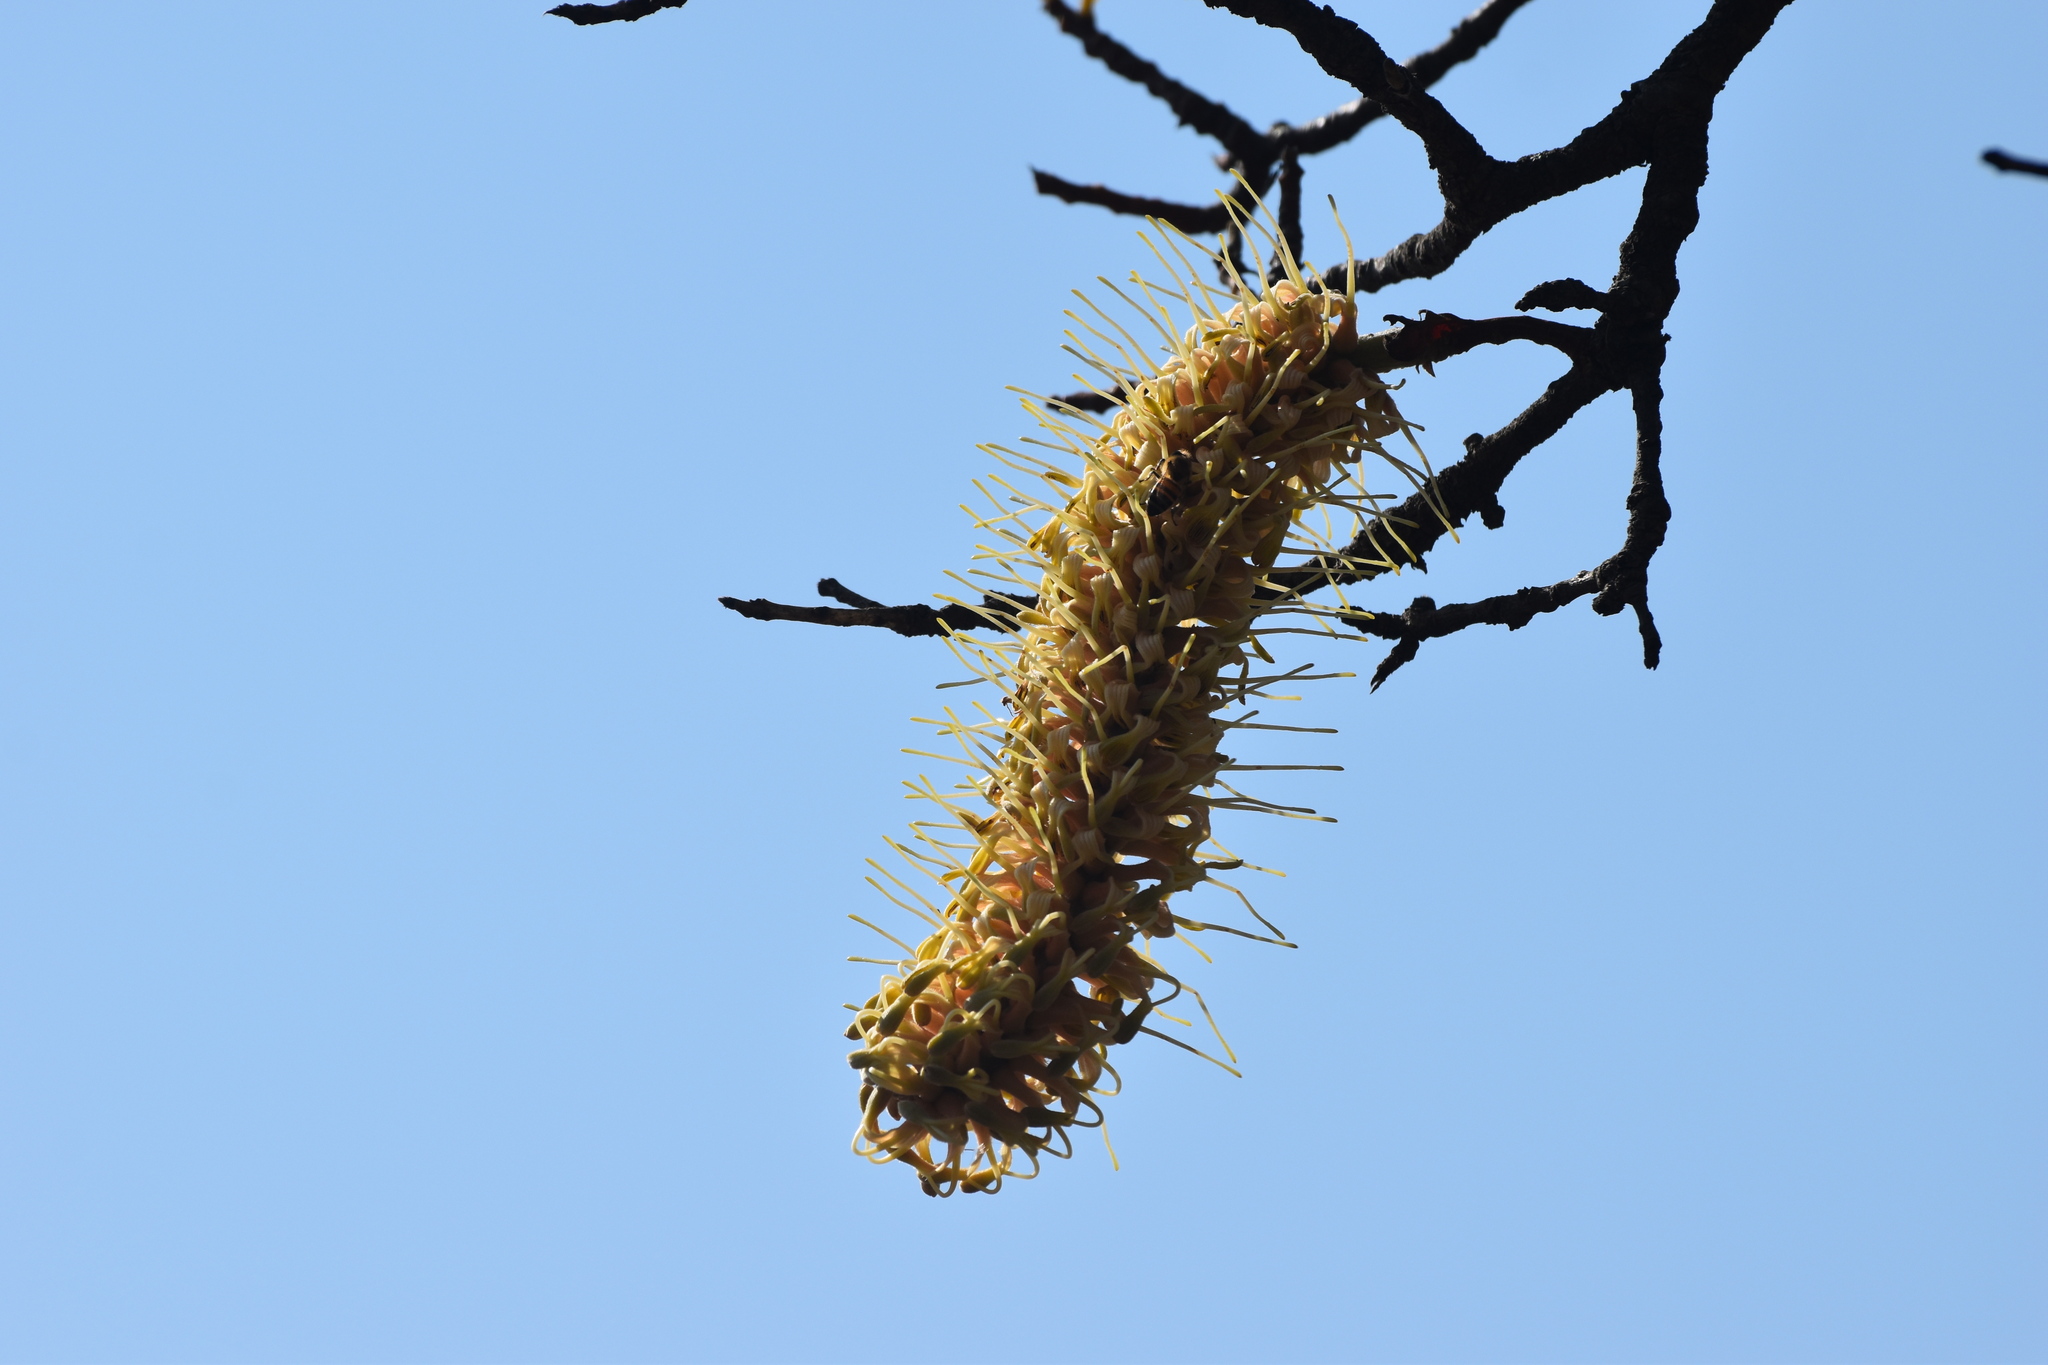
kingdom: Plantae
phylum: Tracheophyta
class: Magnoliopsida
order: Proteales
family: Proteaceae
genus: Faurea
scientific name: Faurea rochetiana
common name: Broad-leaved beech
